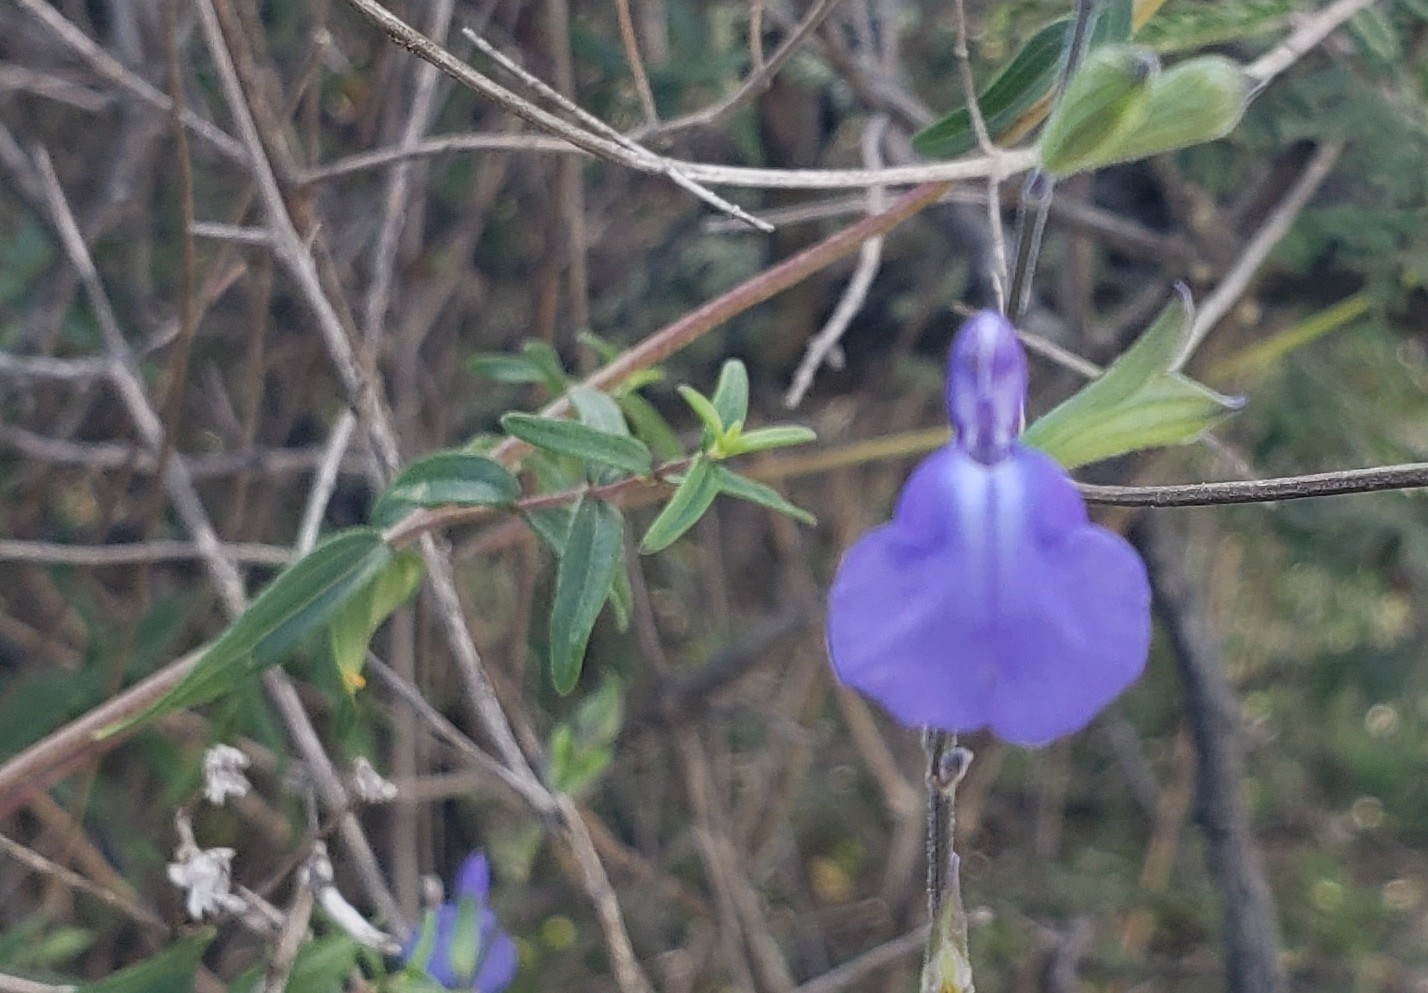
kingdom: Plantae
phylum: Tracheophyta
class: Magnoliopsida
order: Lamiales
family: Lamiaceae
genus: Salvia
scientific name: Salvia chamaedryoides
